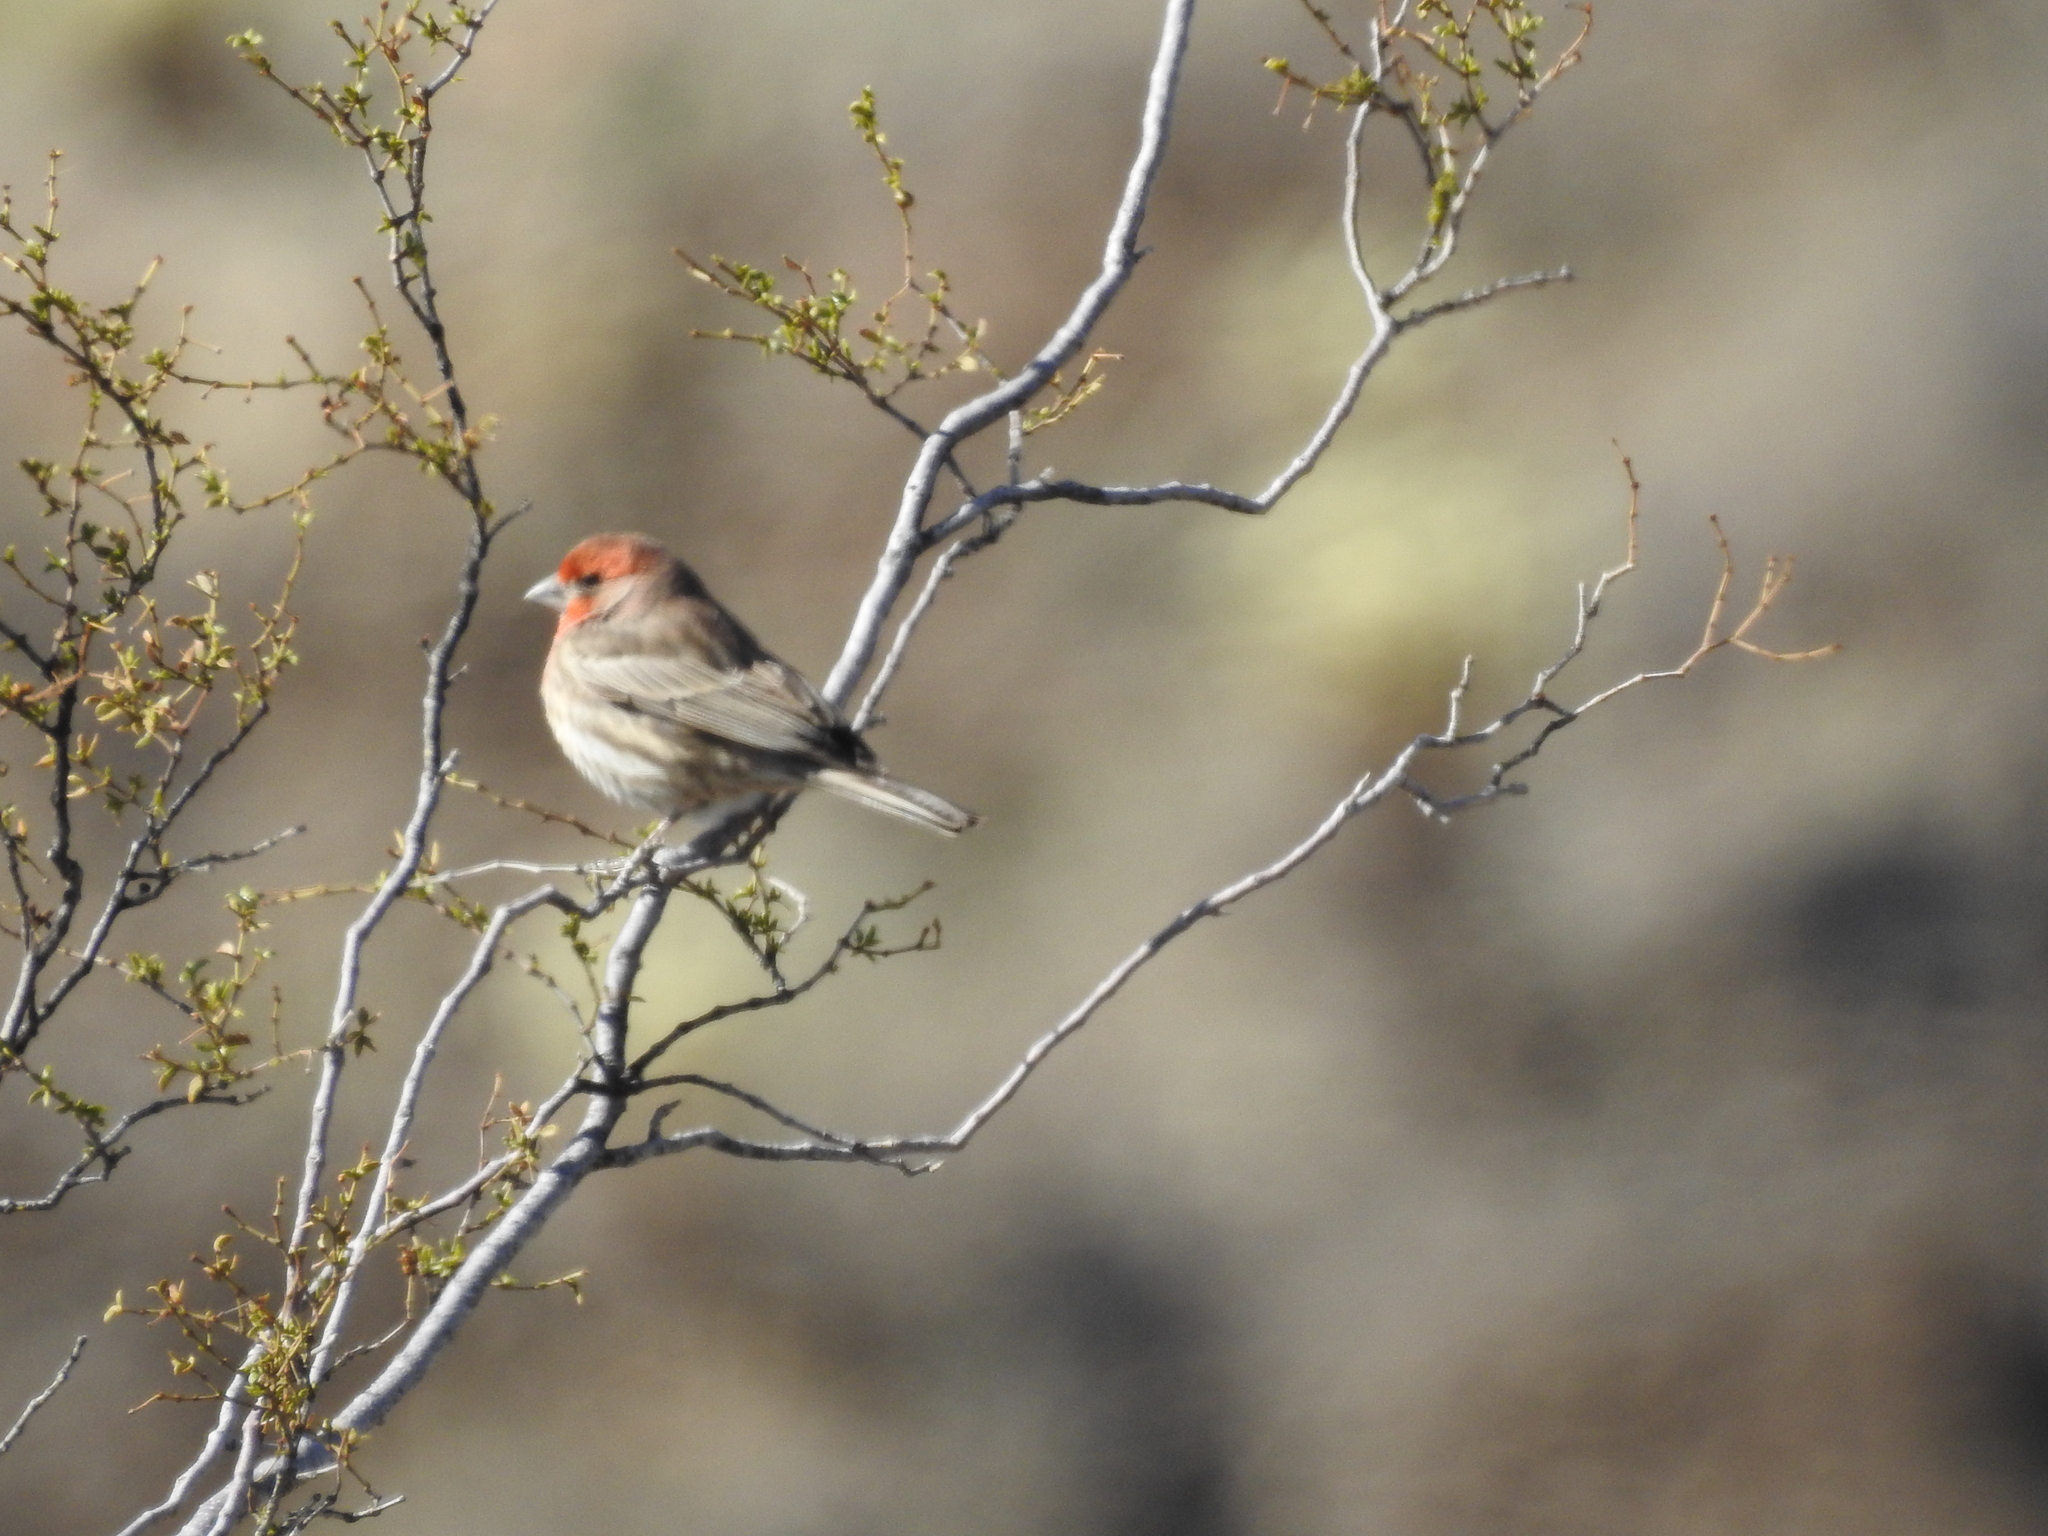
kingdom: Animalia
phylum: Chordata
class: Aves
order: Passeriformes
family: Fringillidae
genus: Haemorhous
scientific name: Haemorhous mexicanus
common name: House finch
